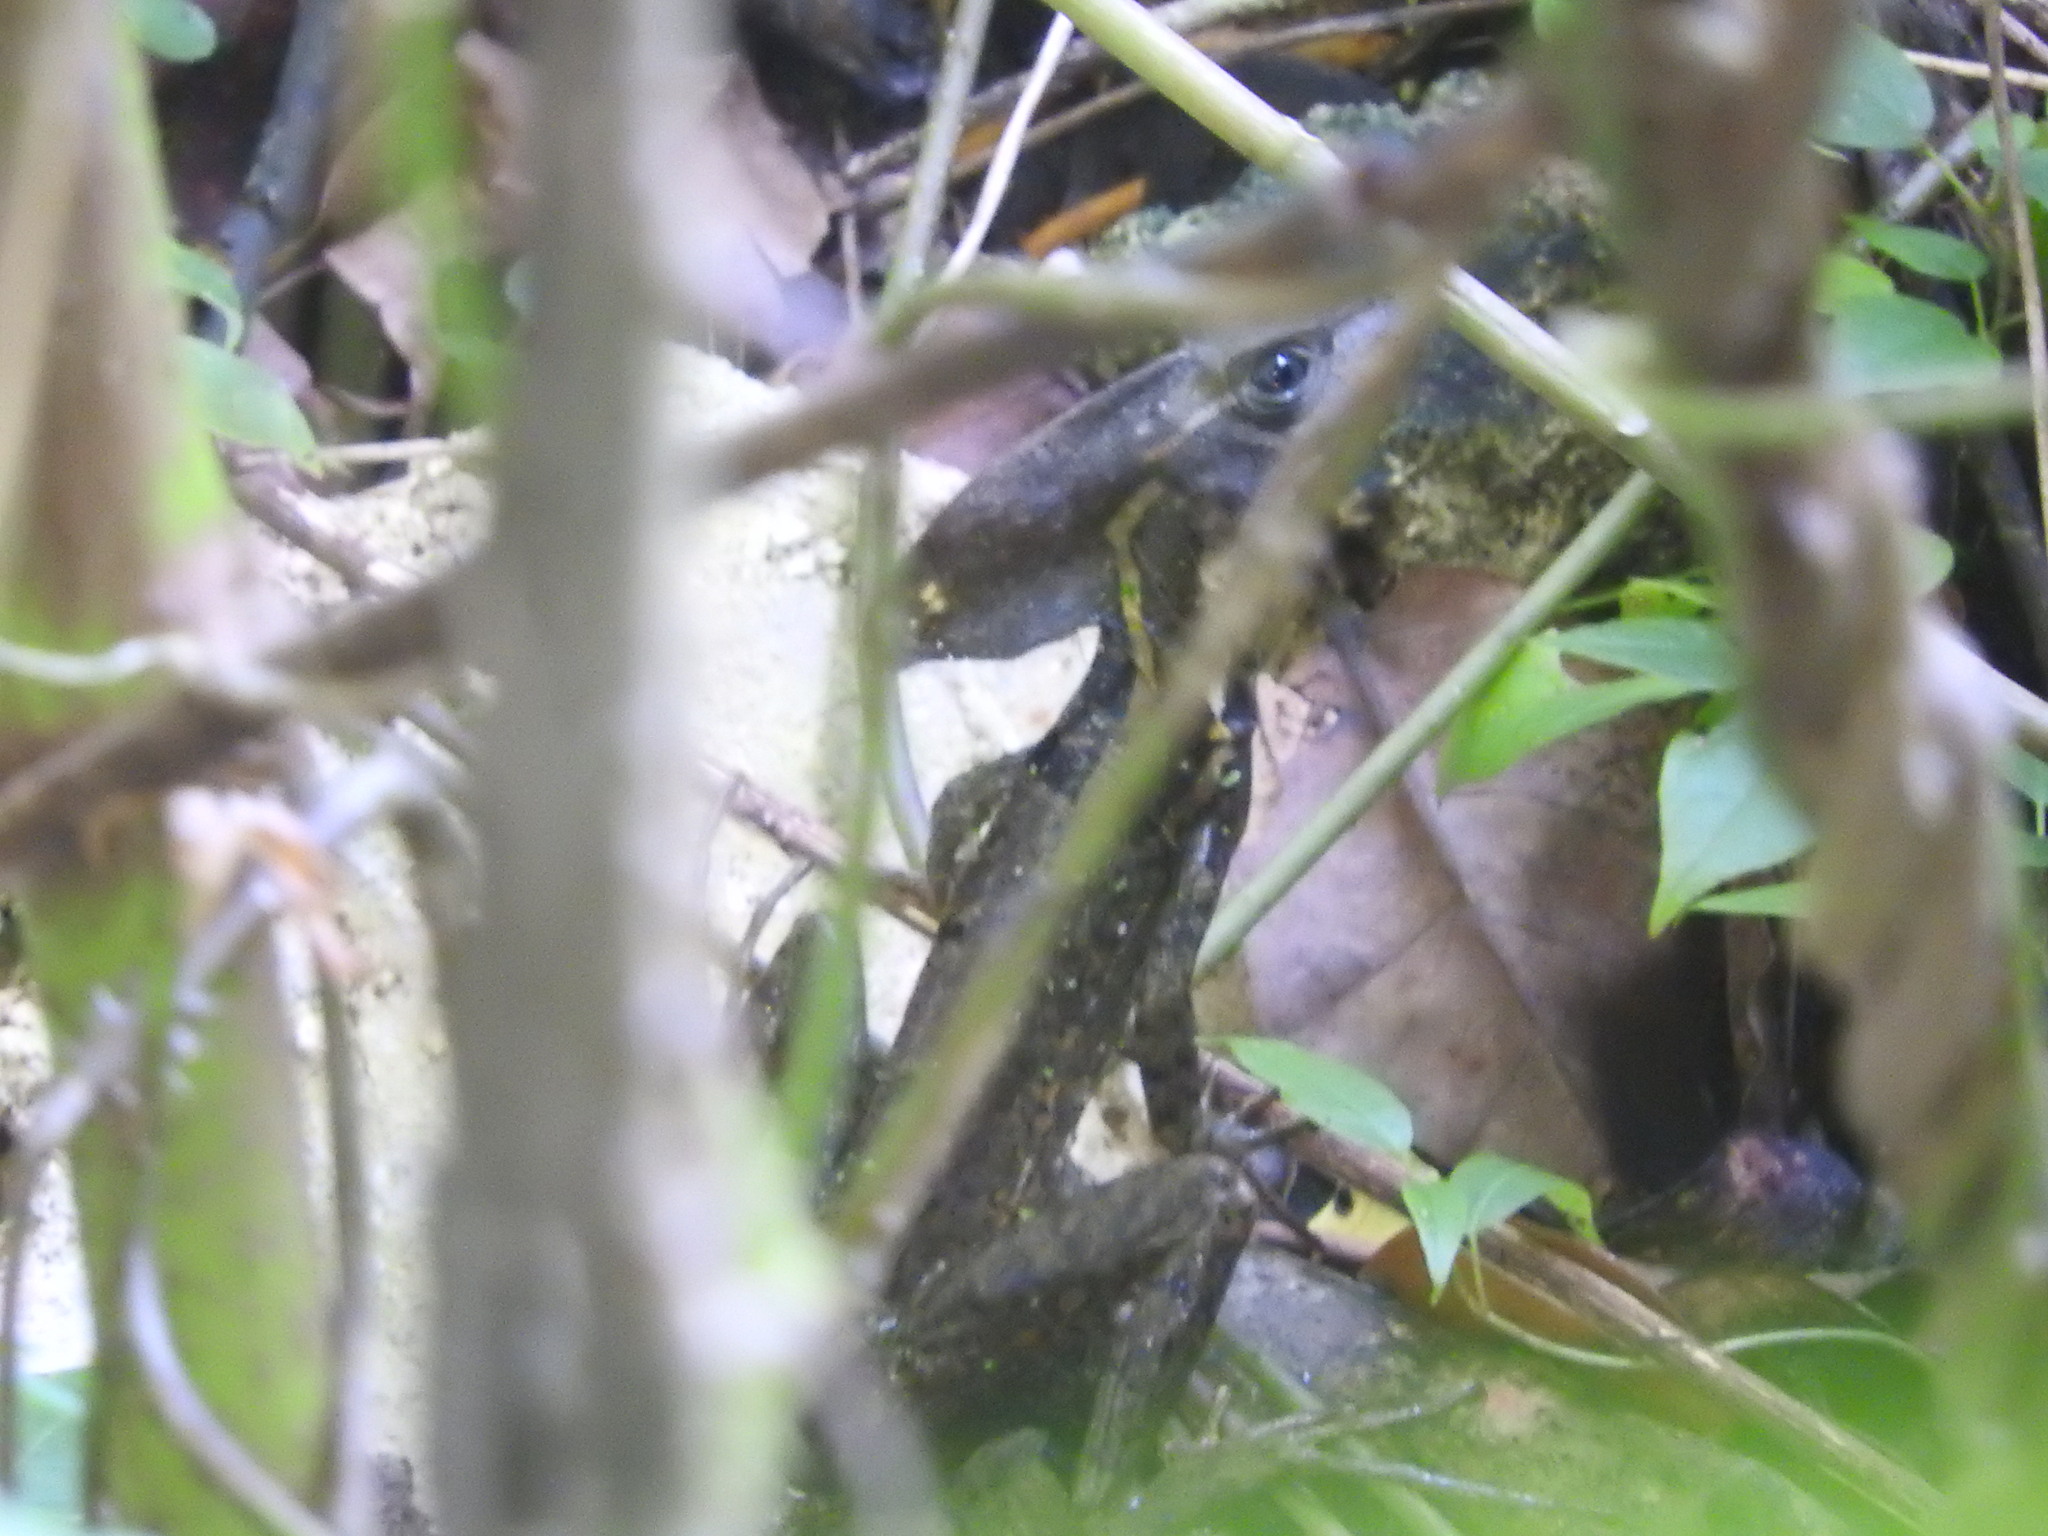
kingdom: Animalia
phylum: Chordata
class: Squamata
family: Corytophanidae
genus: Basiliscus
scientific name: Basiliscus vittatus
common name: Brown basilisk
